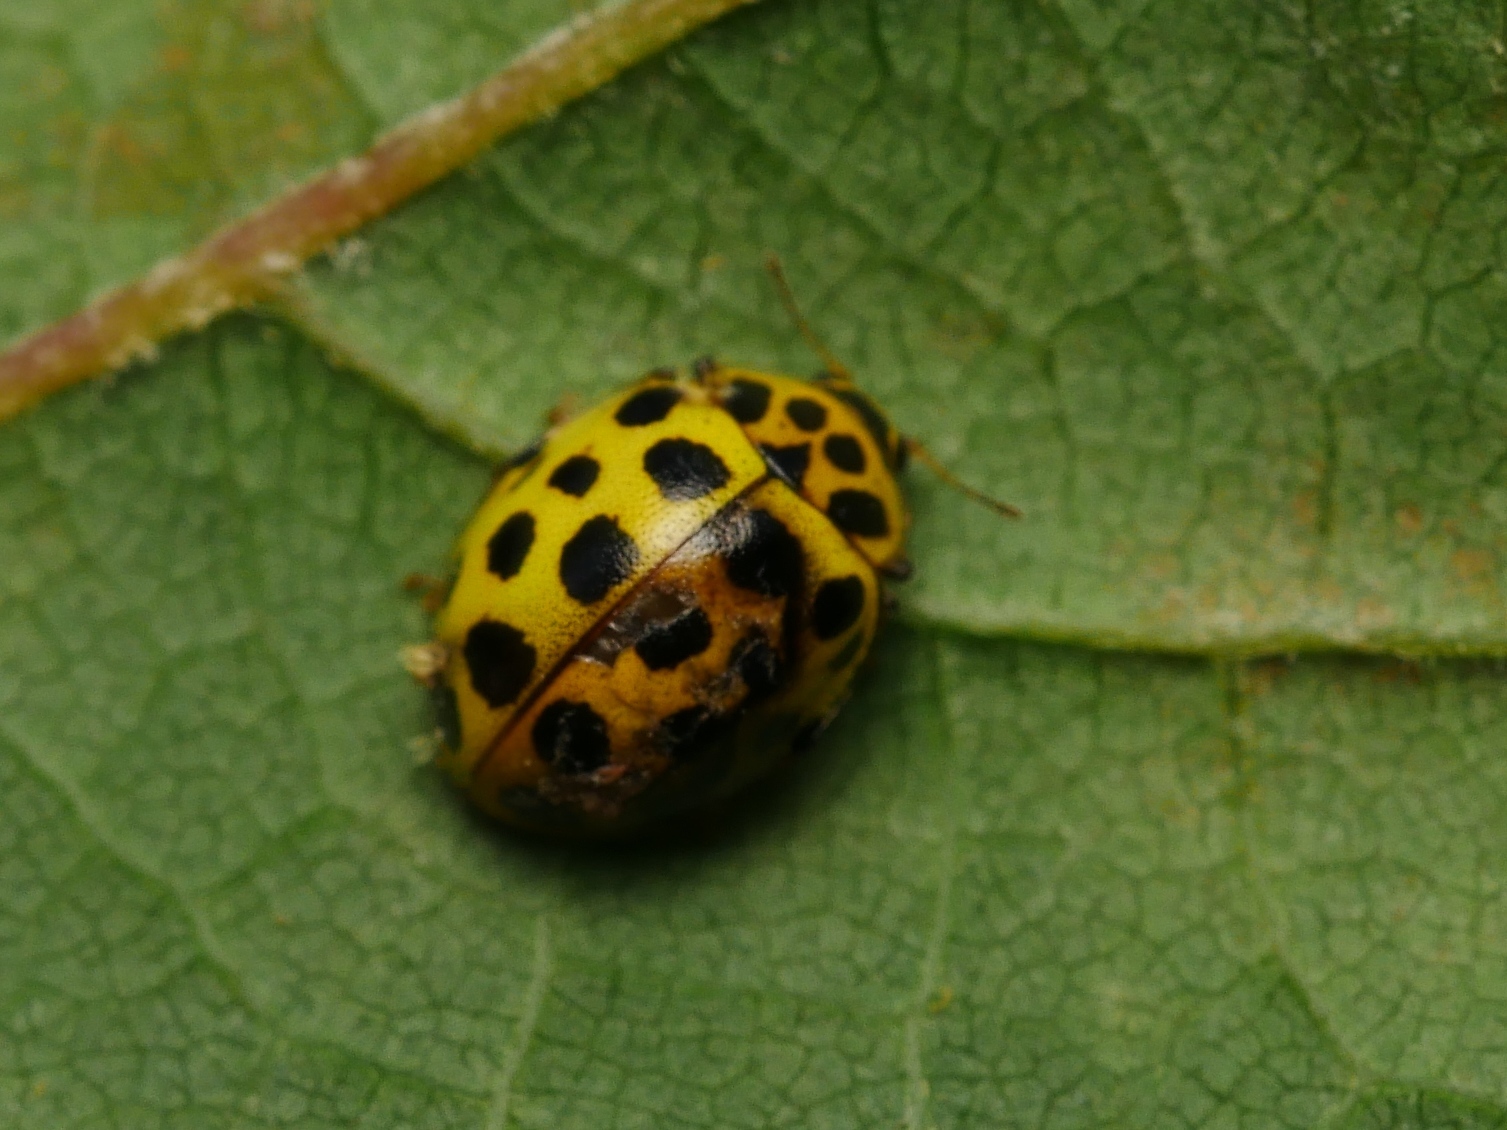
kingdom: Animalia
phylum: Arthropoda
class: Insecta
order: Coleoptera
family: Coccinellidae
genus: Psyllobora
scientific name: Psyllobora vigintiduopunctata
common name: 22-spot ladybird
